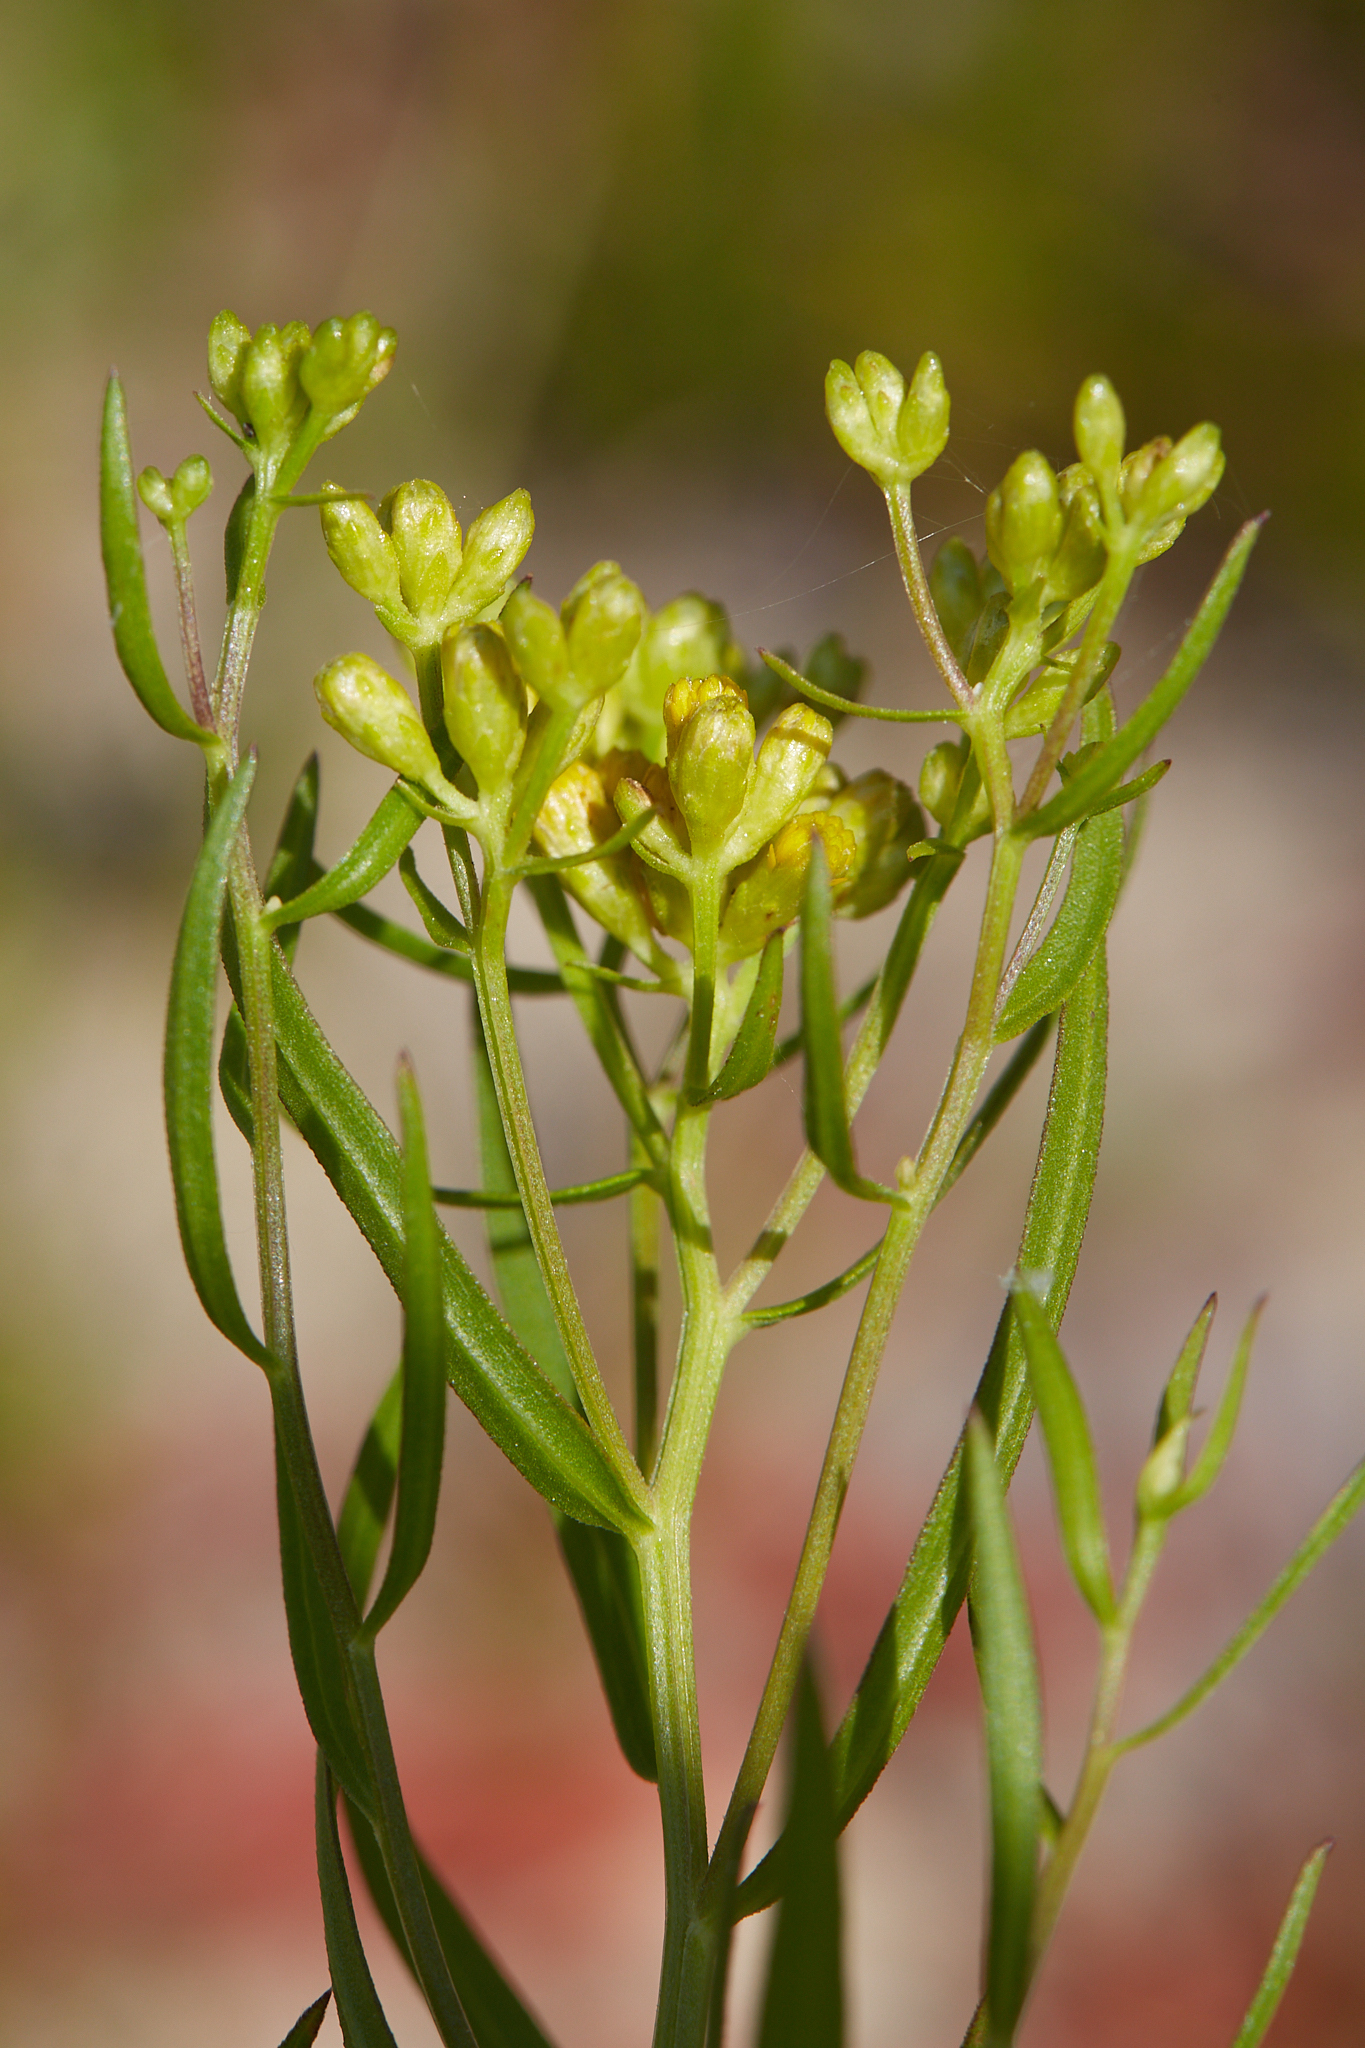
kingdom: Plantae
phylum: Tracheophyta
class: Magnoliopsida
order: Asterales
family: Asteraceae
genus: Euthamia
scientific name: Euthamia caroliniana
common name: Coastal plain goldentop
